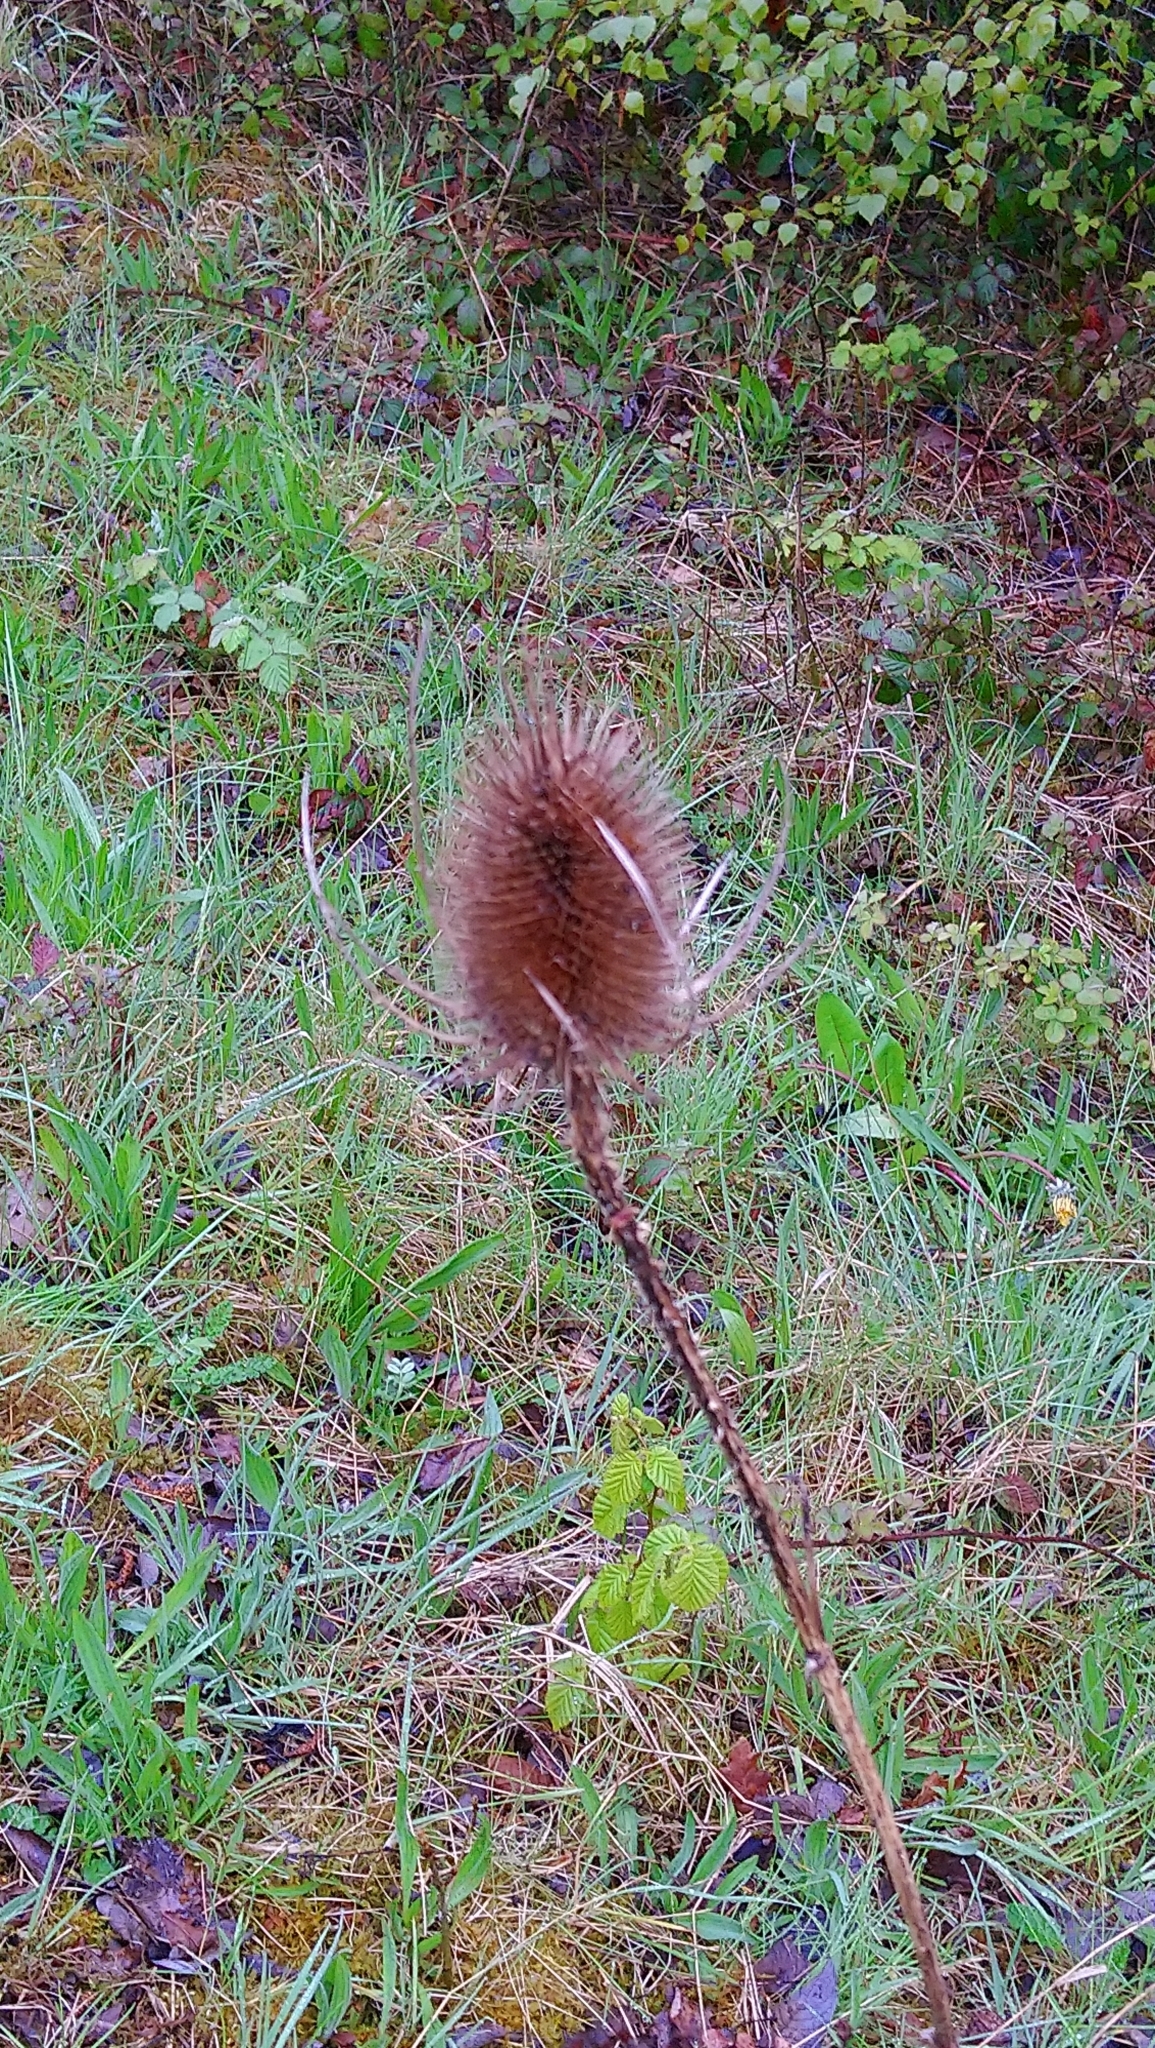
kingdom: Plantae
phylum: Tracheophyta
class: Magnoliopsida
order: Dipsacales
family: Caprifoliaceae
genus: Dipsacus
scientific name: Dipsacus fullonum
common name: Teasel
